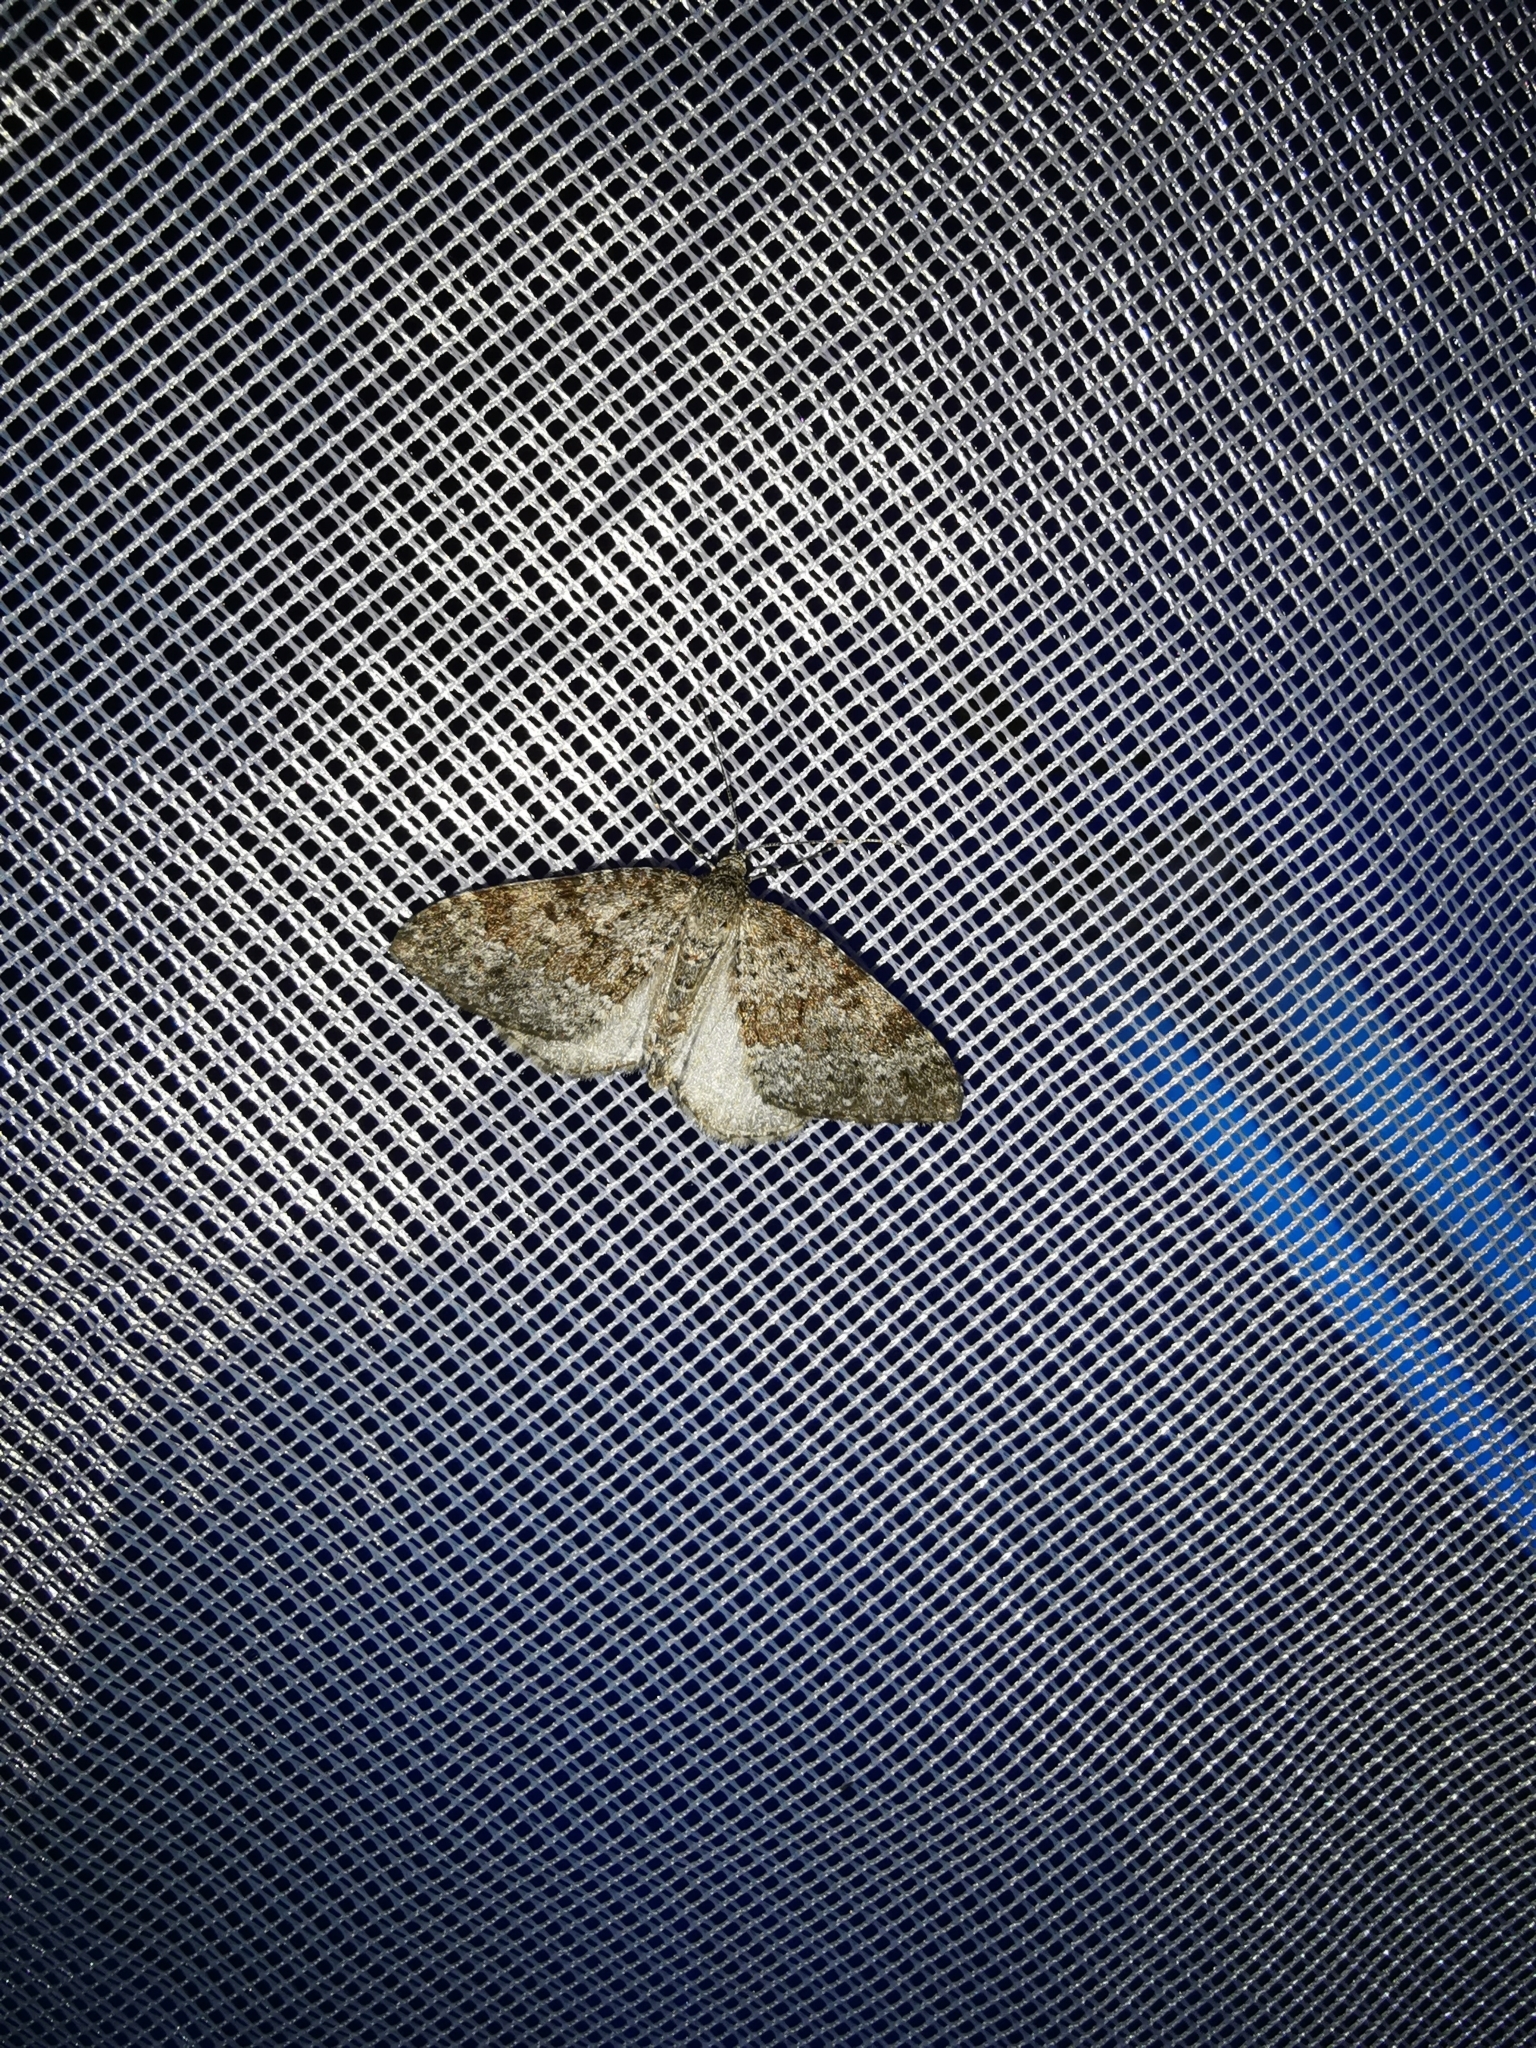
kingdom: Animalia
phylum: Arthropoda
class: Insecta
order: Lepidoptera
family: Geometridae
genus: Entephria
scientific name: Entephria caesiata
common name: Grey mountain moth
